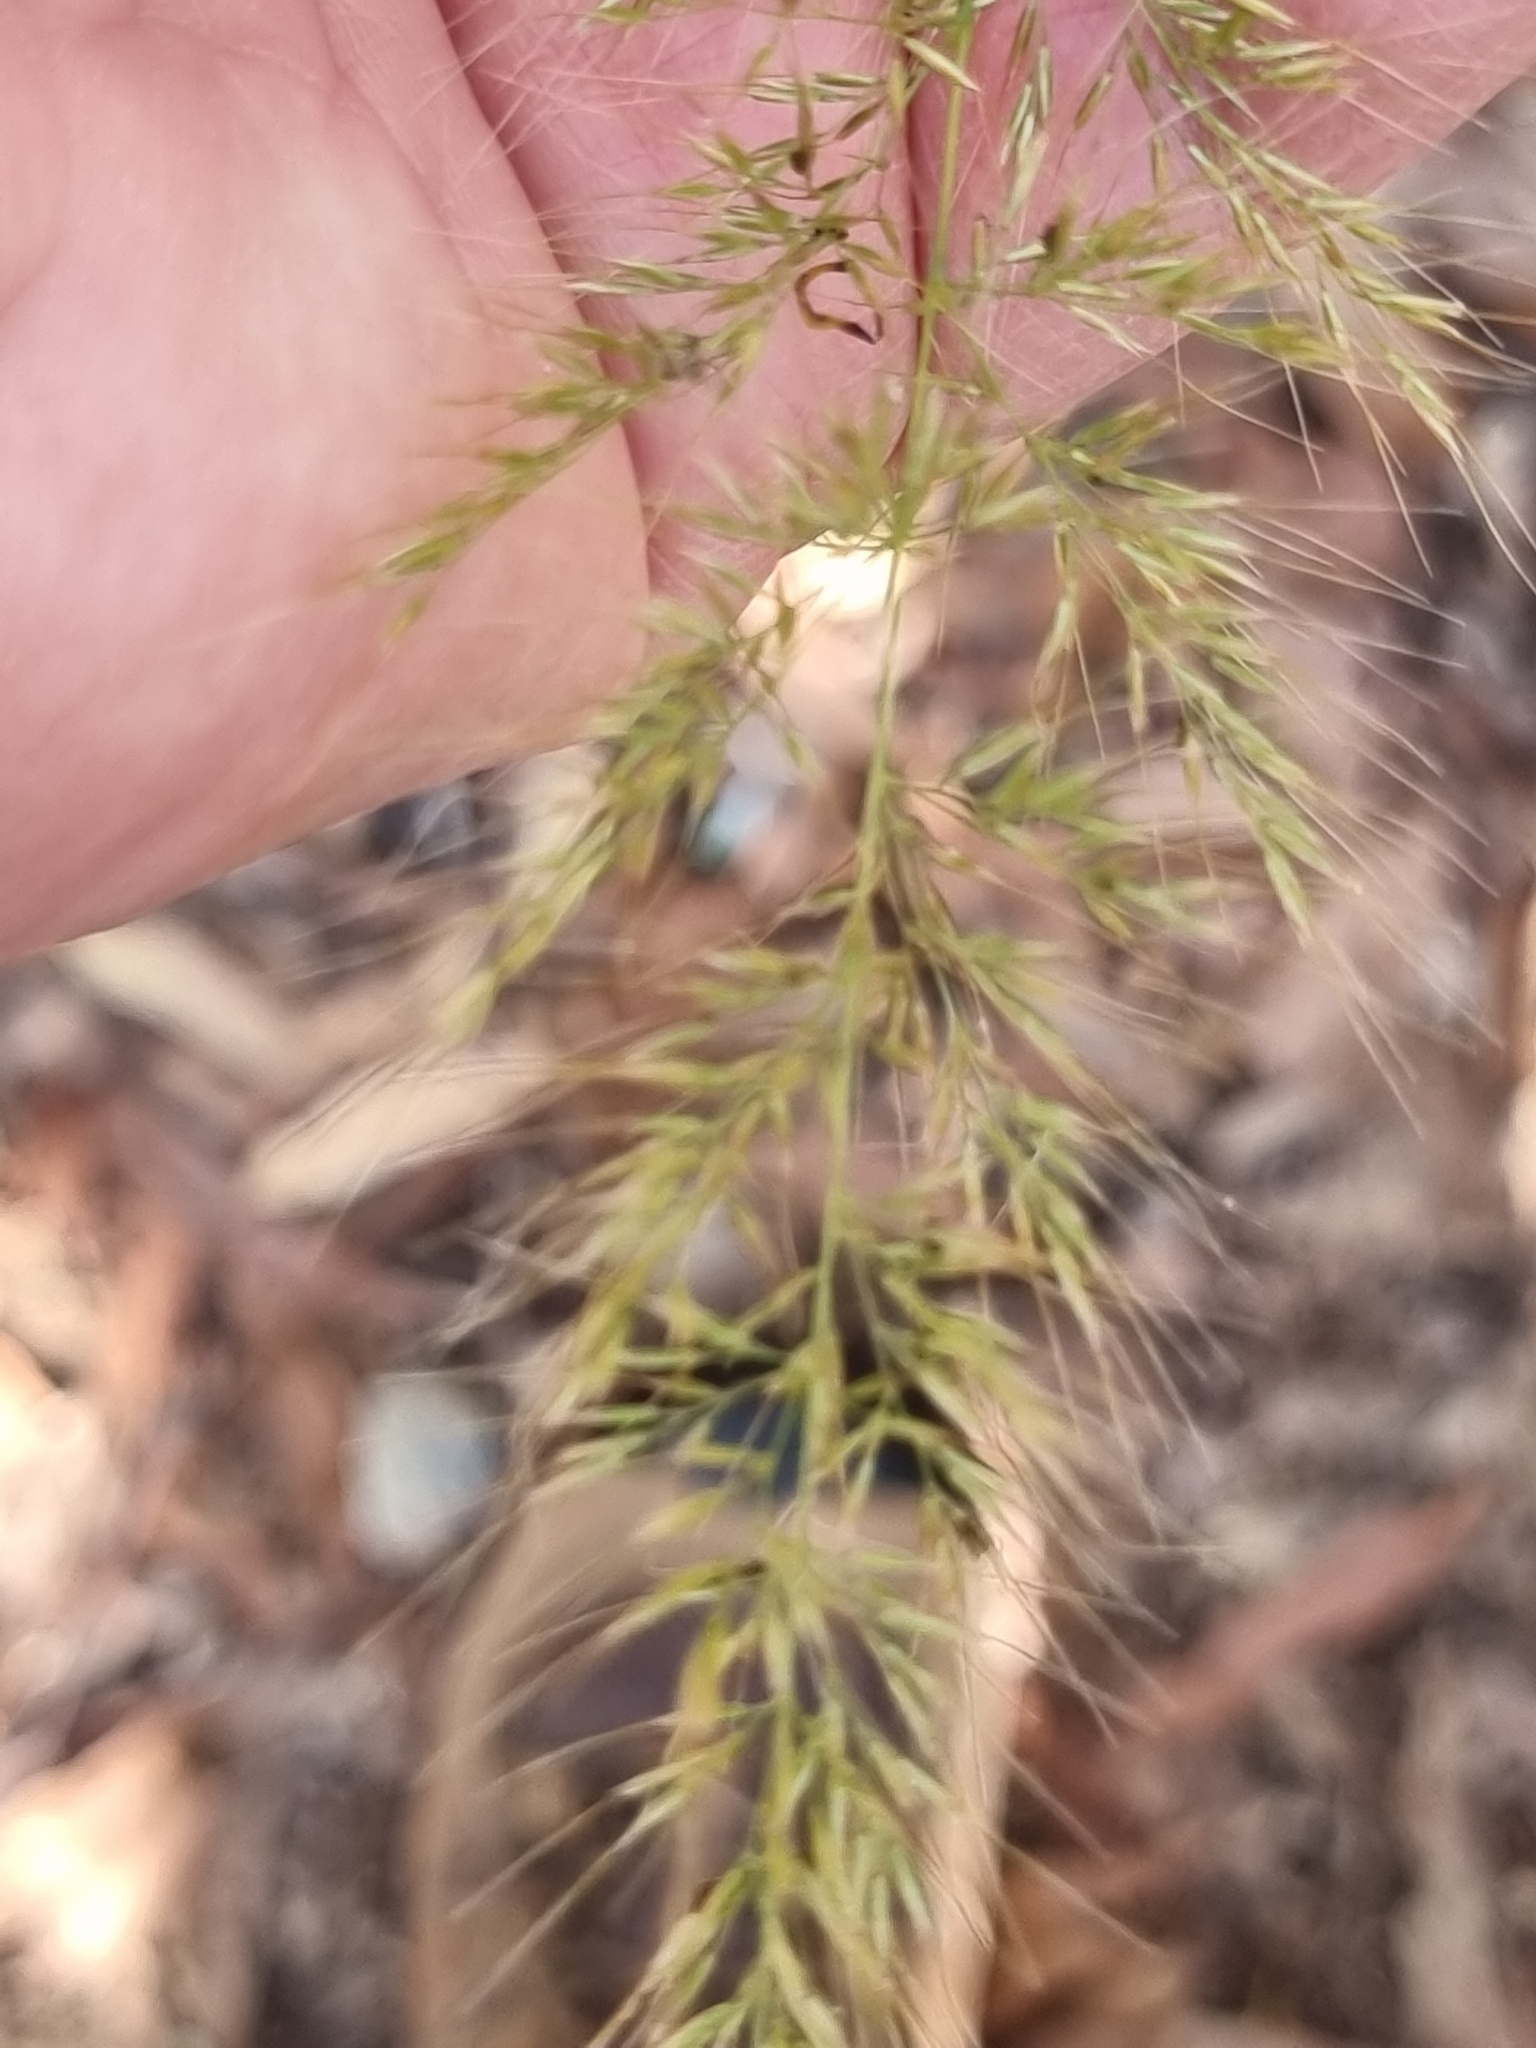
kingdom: Plantae
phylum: Tracheophyta
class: Liliopsida
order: Poales
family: Poaceae
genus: Melinis
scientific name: Melinis minutiflora
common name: Molassesgrass
